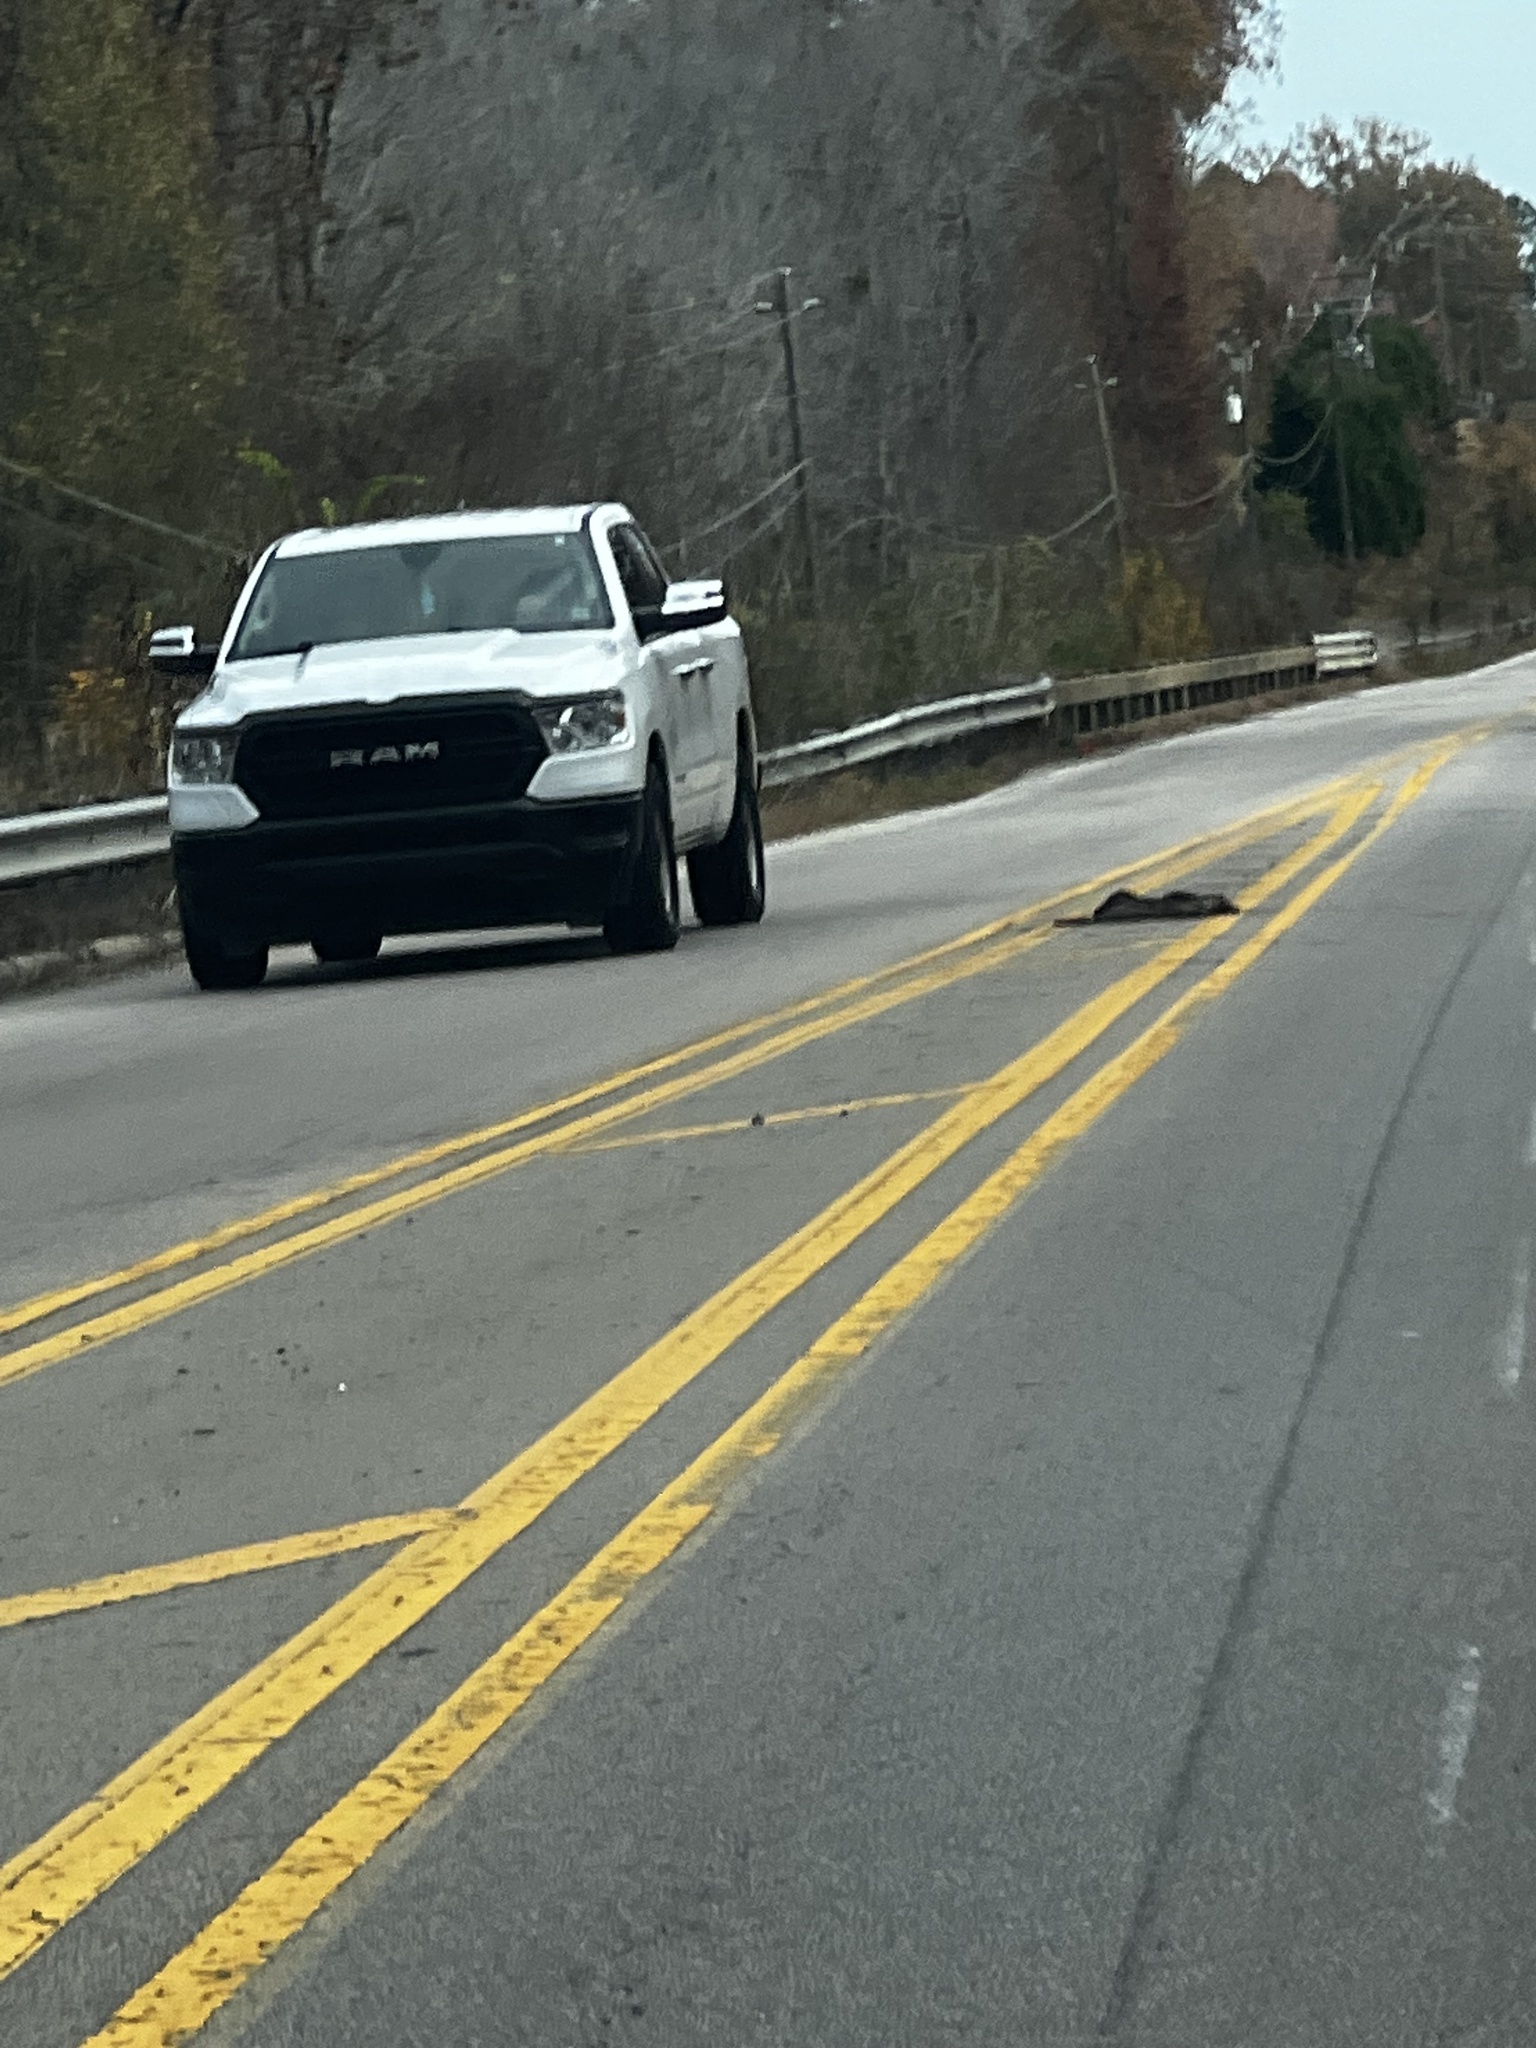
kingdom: Animalia
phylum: Chordata
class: Mammalia
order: Carnivora
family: Procyonidae
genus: Procyon
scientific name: Procyon lotor
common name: Raccoon
